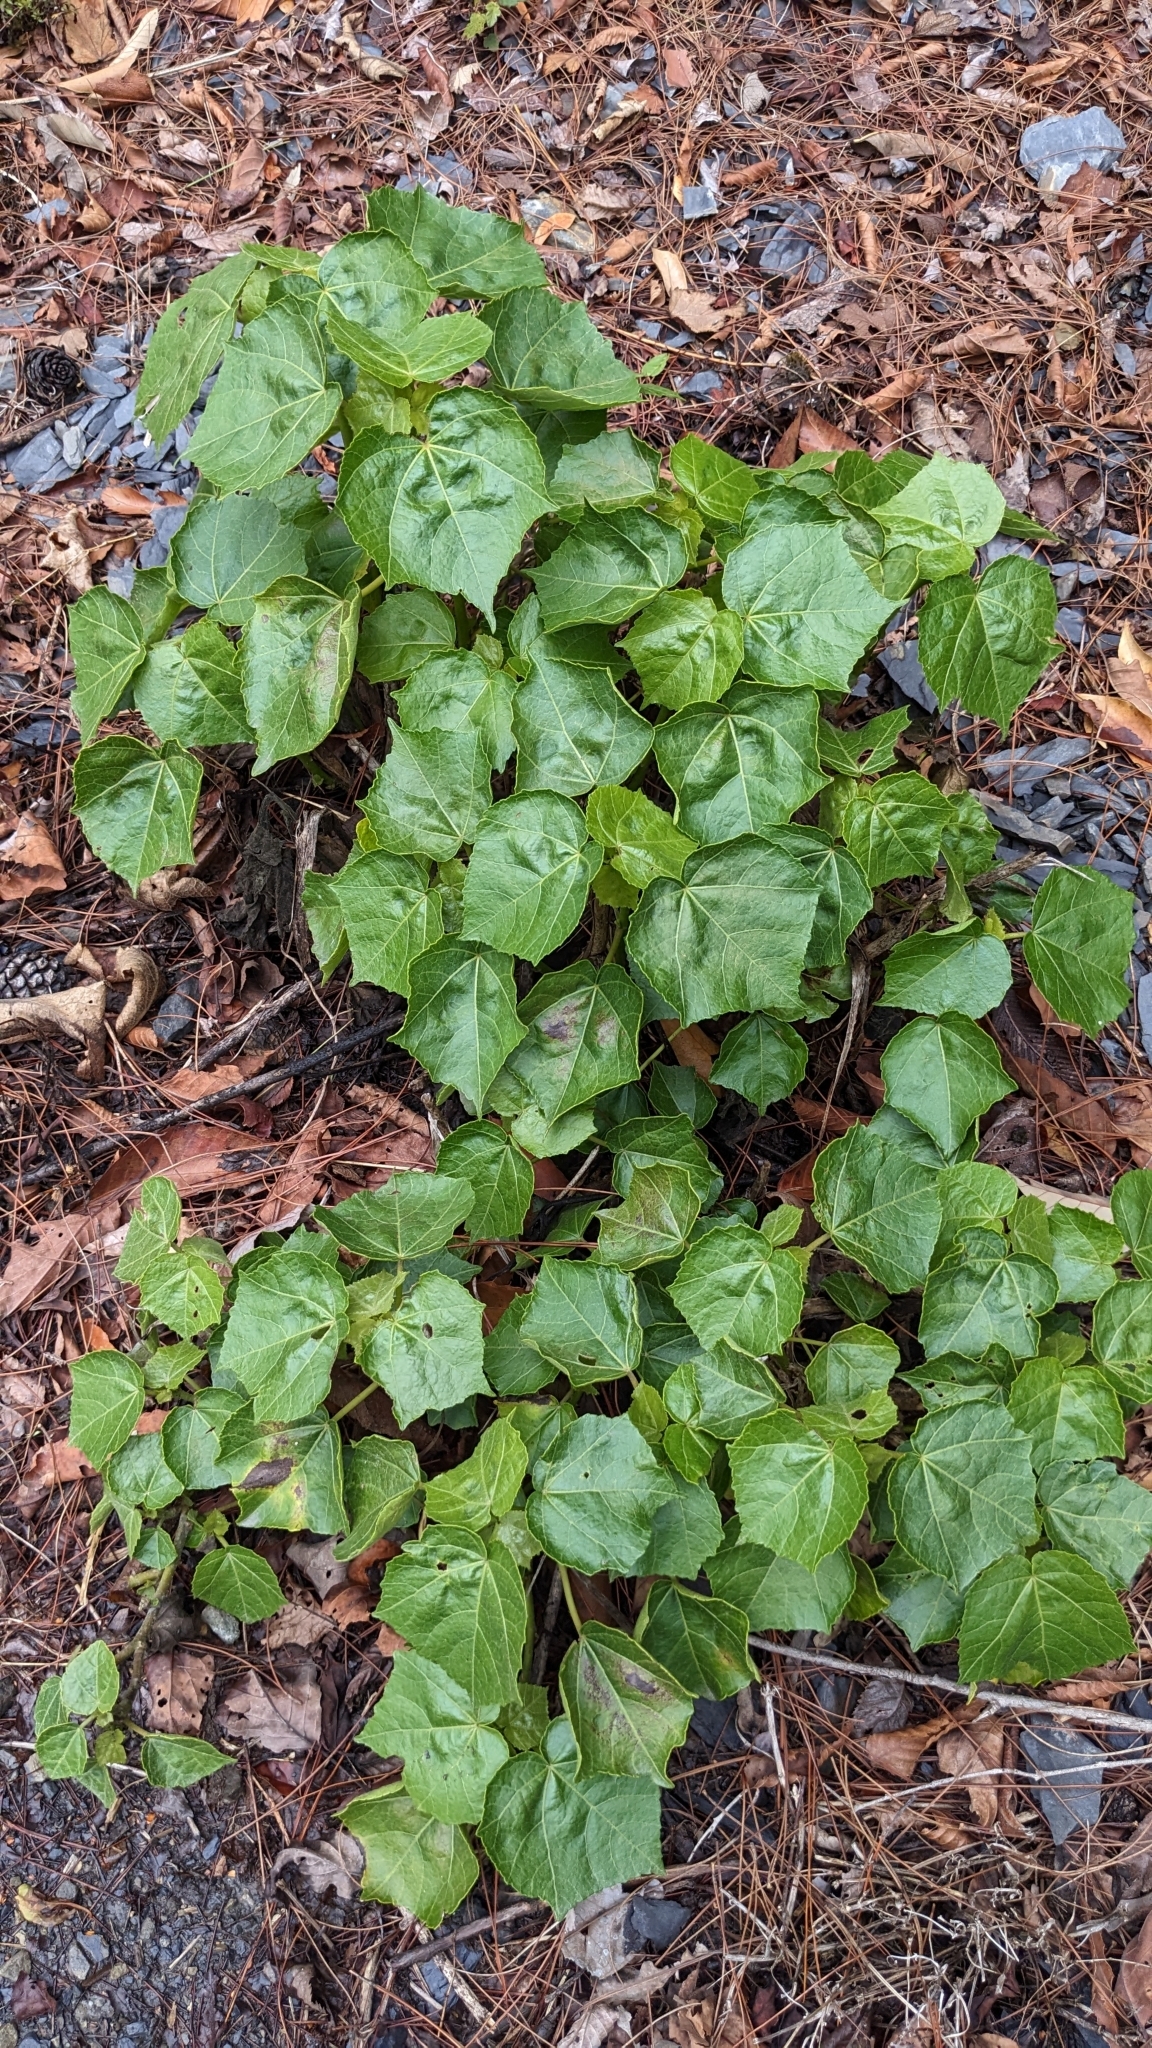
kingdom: Plantae
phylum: Tracheophyta
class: Magnoliopsida
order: Malvales
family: Malvaceae
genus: Hibiscus
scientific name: Hibiscus taiwanensis
